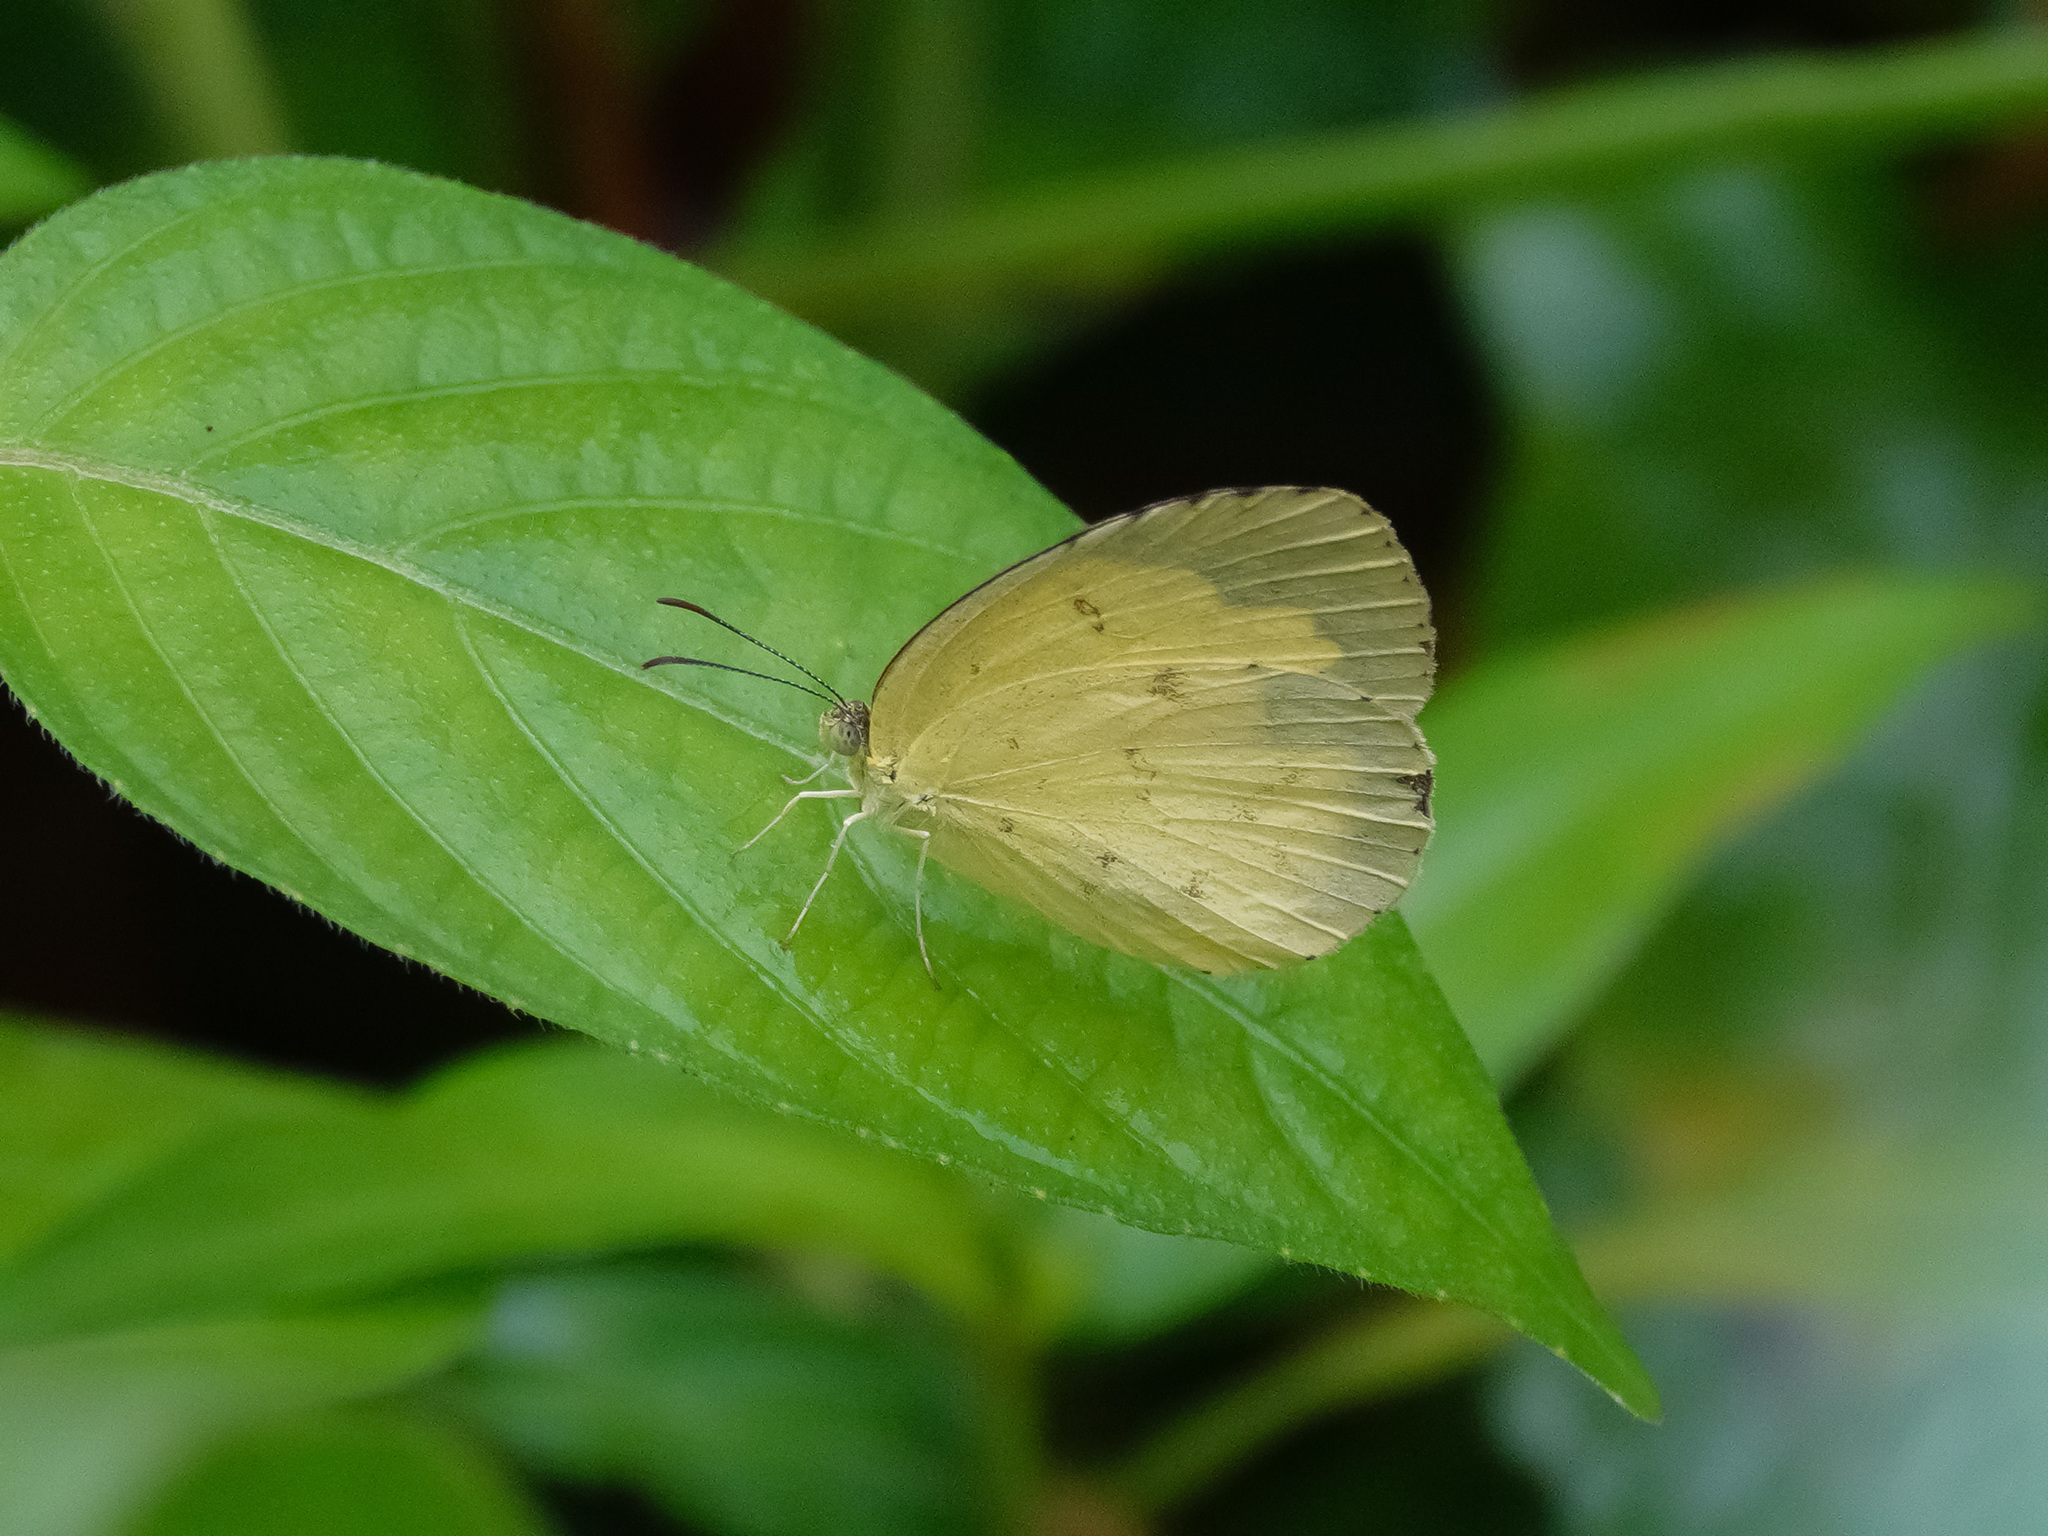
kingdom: Animalia
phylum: Arthropoda
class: Insecta
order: Lepidoptera
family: Pieridae
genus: Eurema
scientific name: Eurema hecabe
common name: Pale grass yellow
